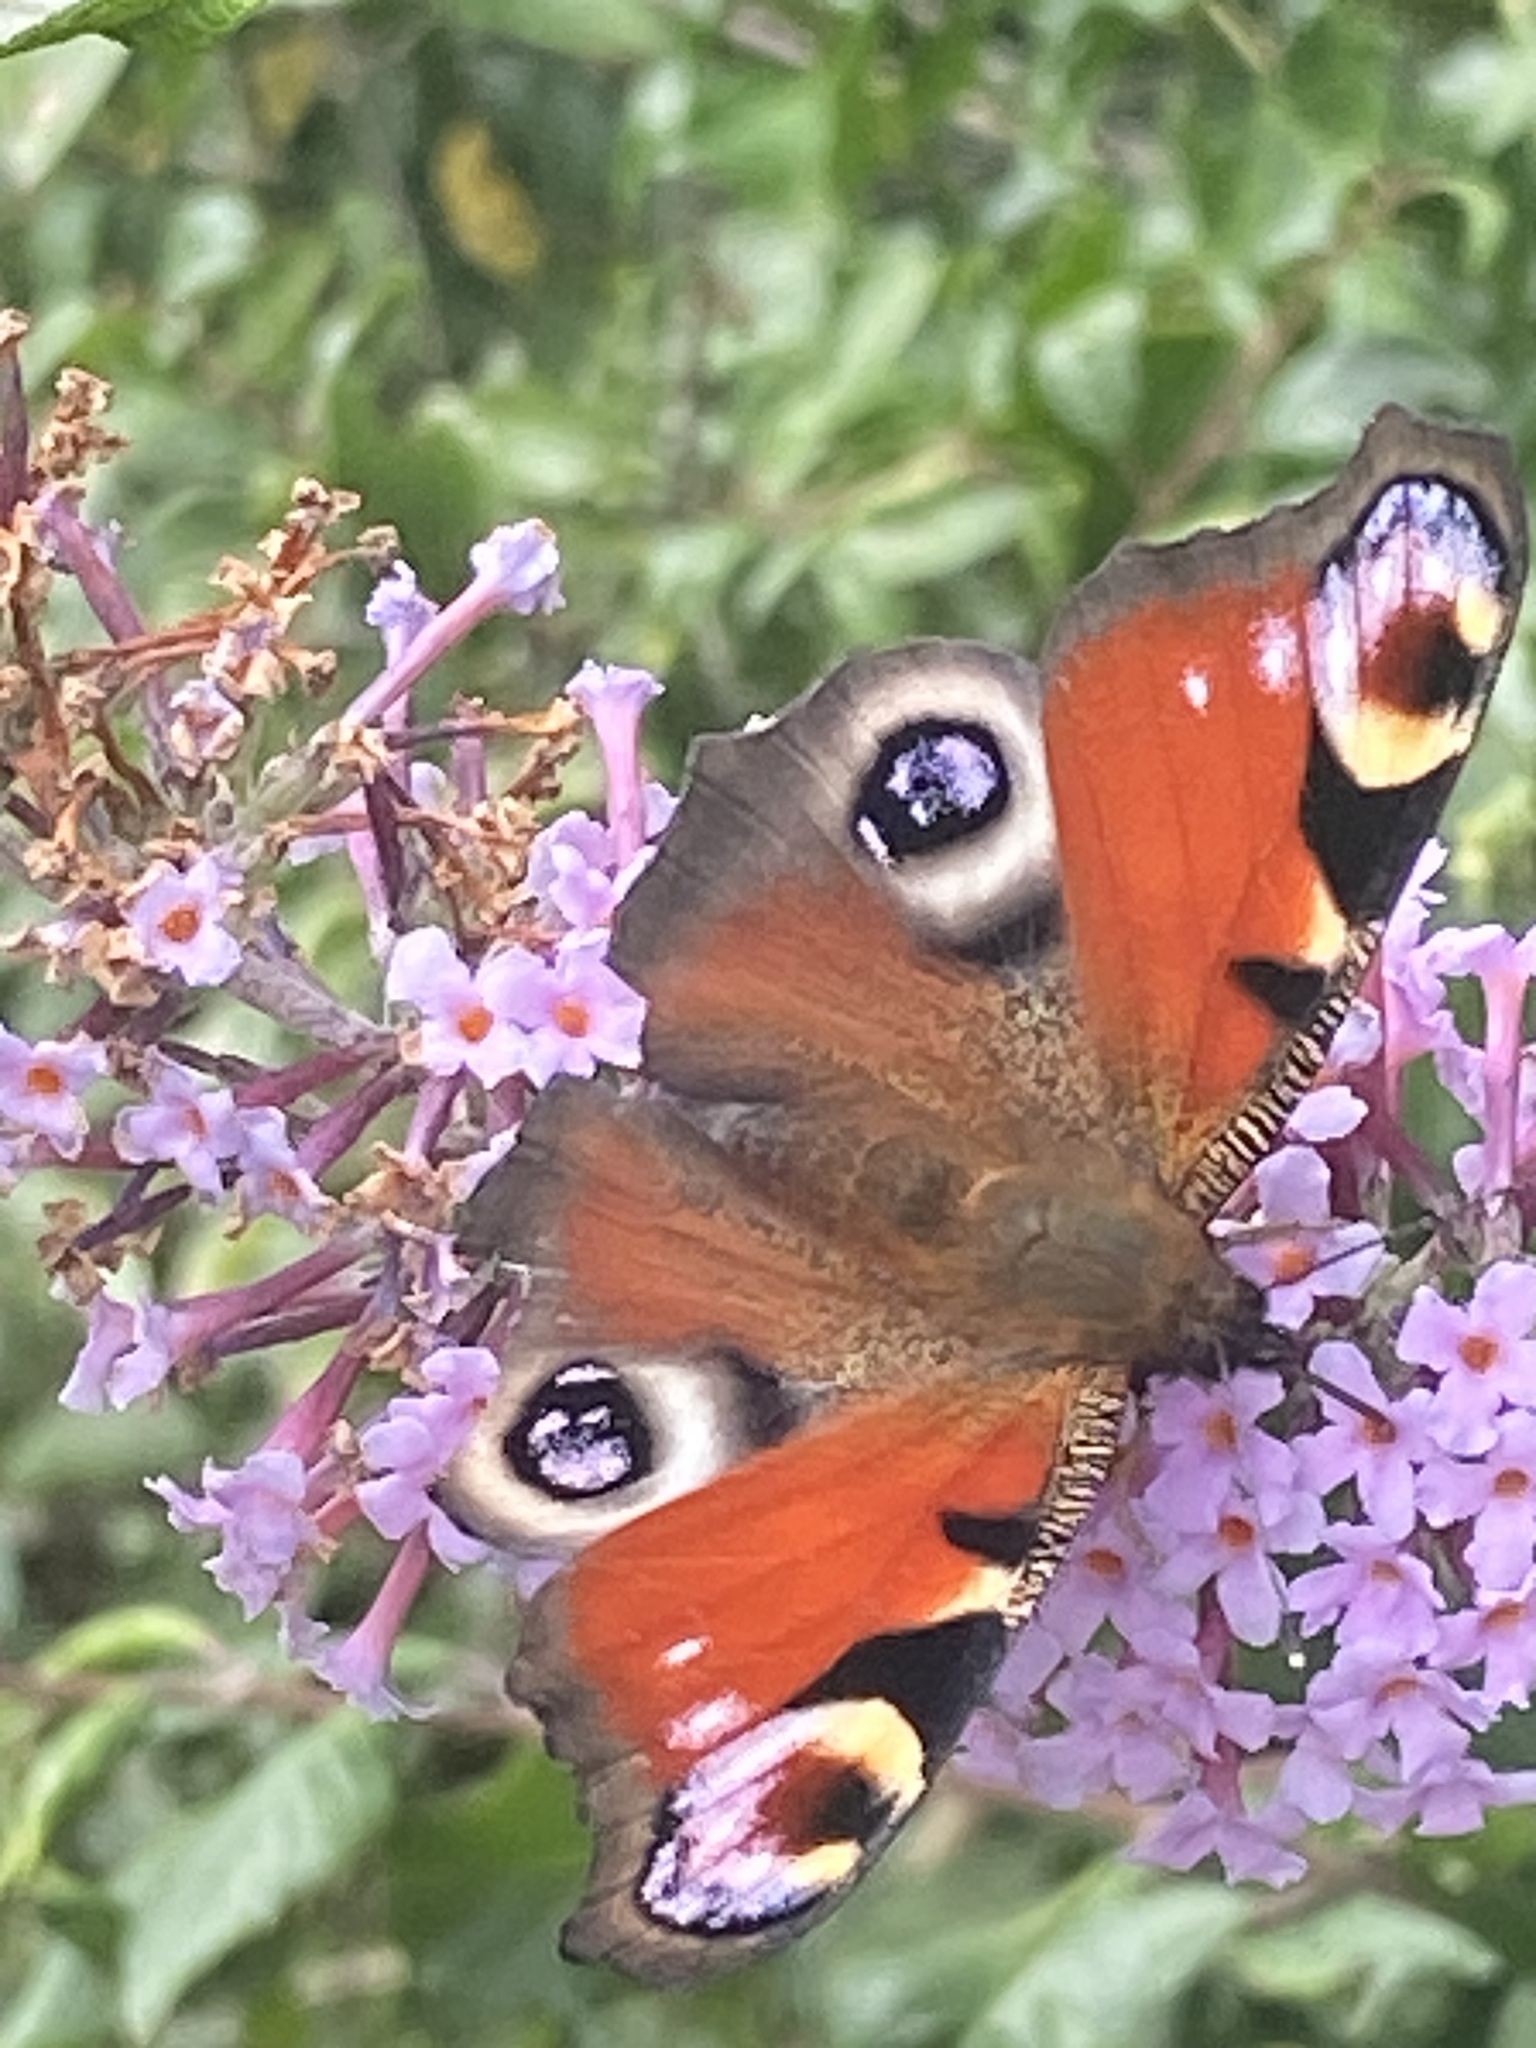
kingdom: Animalia
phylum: Arthropoda
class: Insecta
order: Lepidoptera
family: Nymphalidae
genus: Aglais
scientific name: Aglais io
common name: Peacock
